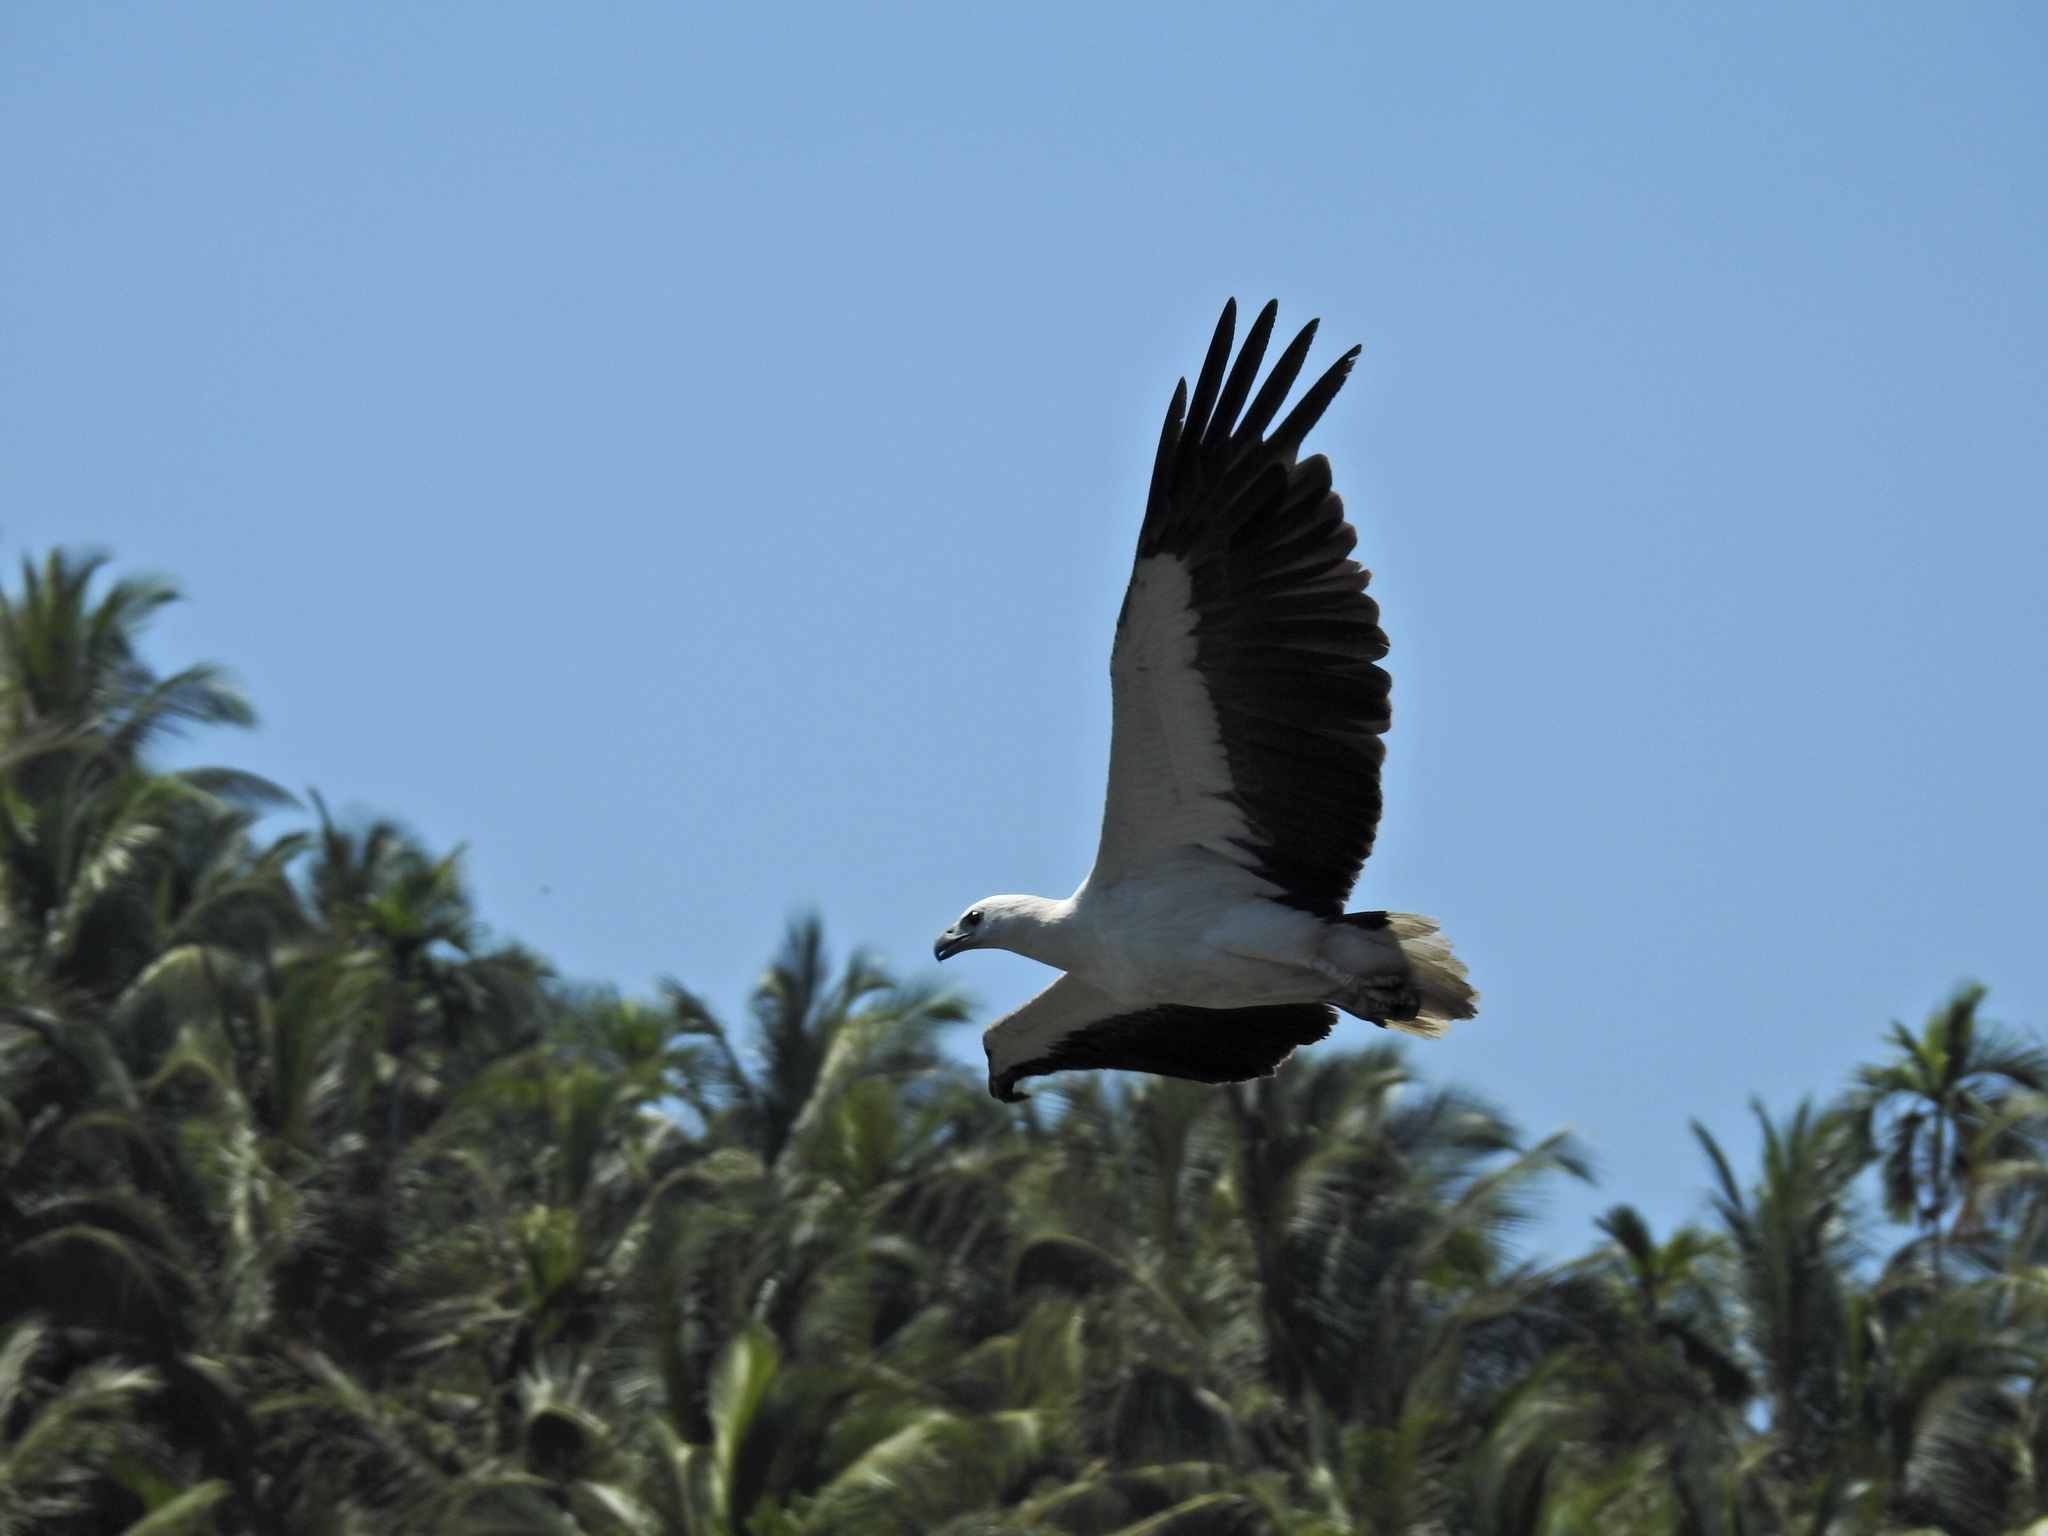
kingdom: Animalia
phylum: Chordata
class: Aves
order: Accipitriformes
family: Accipitridae
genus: Haliaeetus
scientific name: Haliaeetus leucogaster
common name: White-bellied sea eagle
